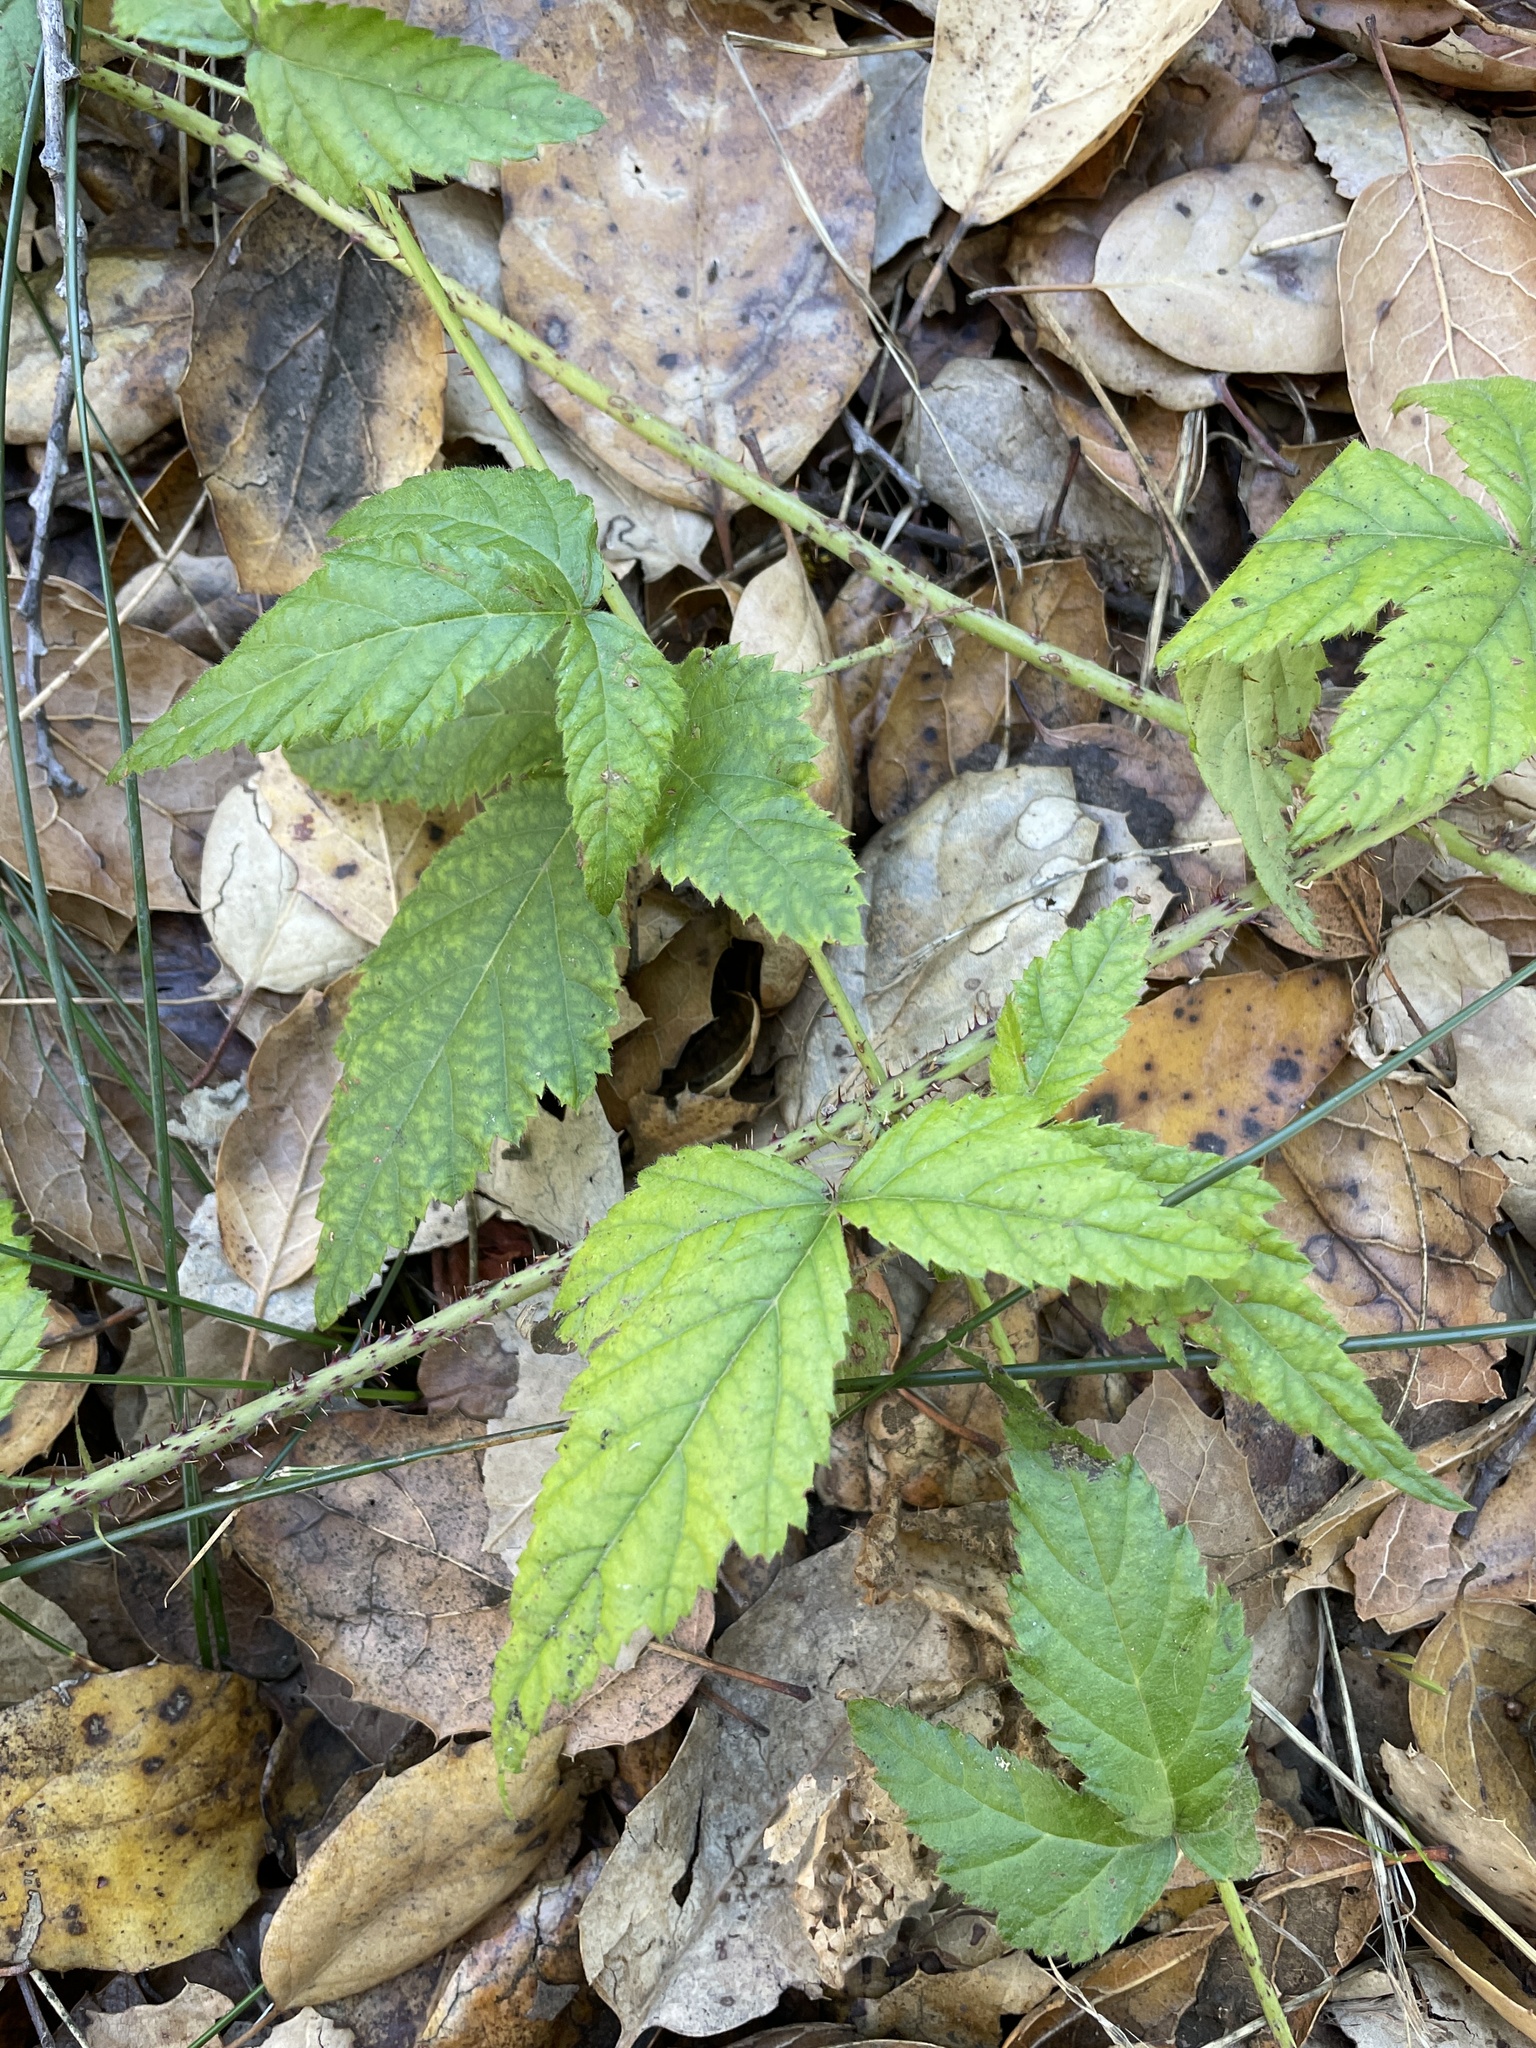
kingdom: Plantae
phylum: Tracheophyta
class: Magnoliopsida
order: Rosales
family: Rosaceae
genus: Rubus
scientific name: Rubus ursinus
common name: Pacific blackberry
